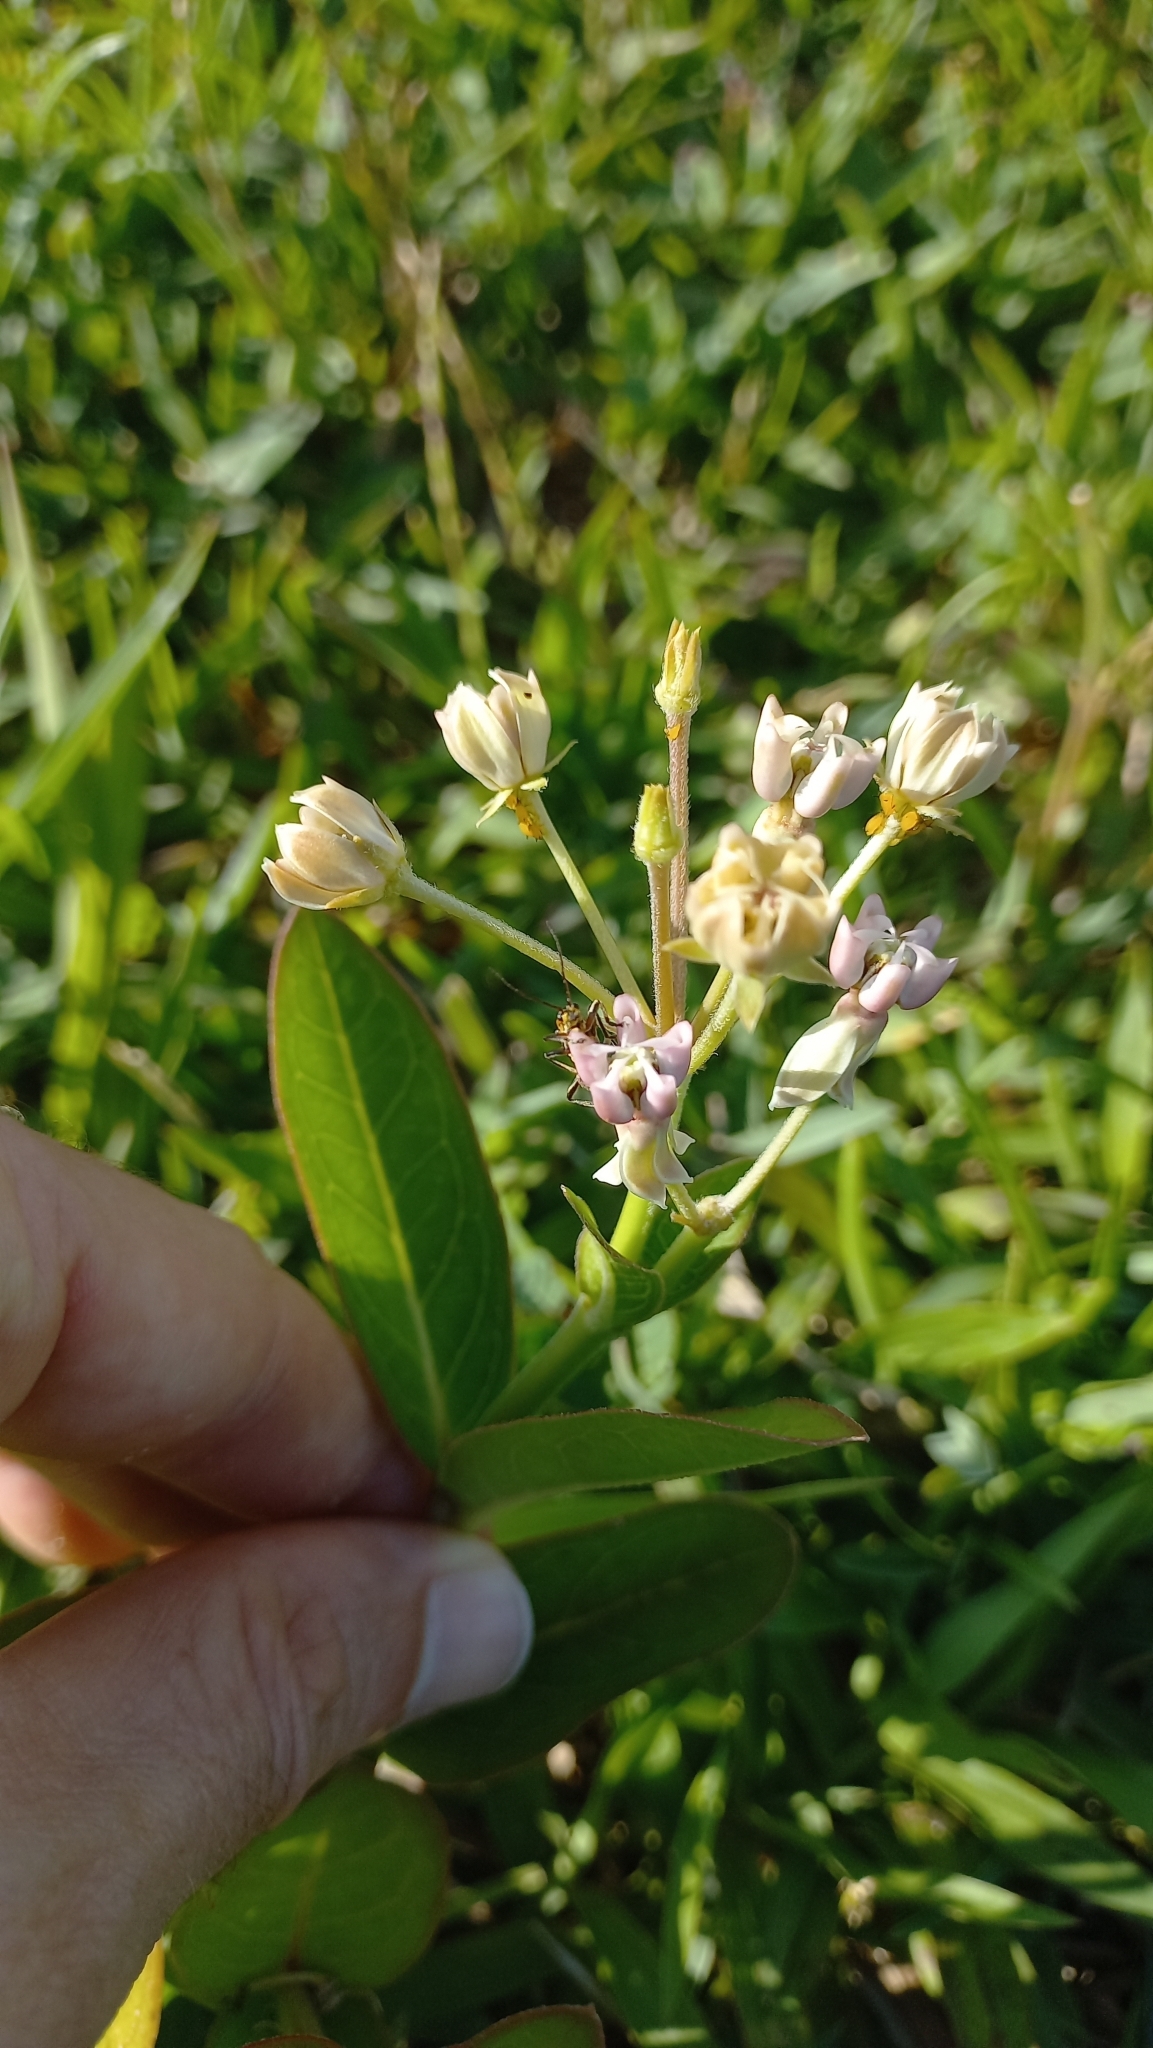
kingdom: Plantae
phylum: Tracheophyta
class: Magnoliopsida
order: Gentianales
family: Apocynaceae
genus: Asclepias
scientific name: Asclepias mellodora
